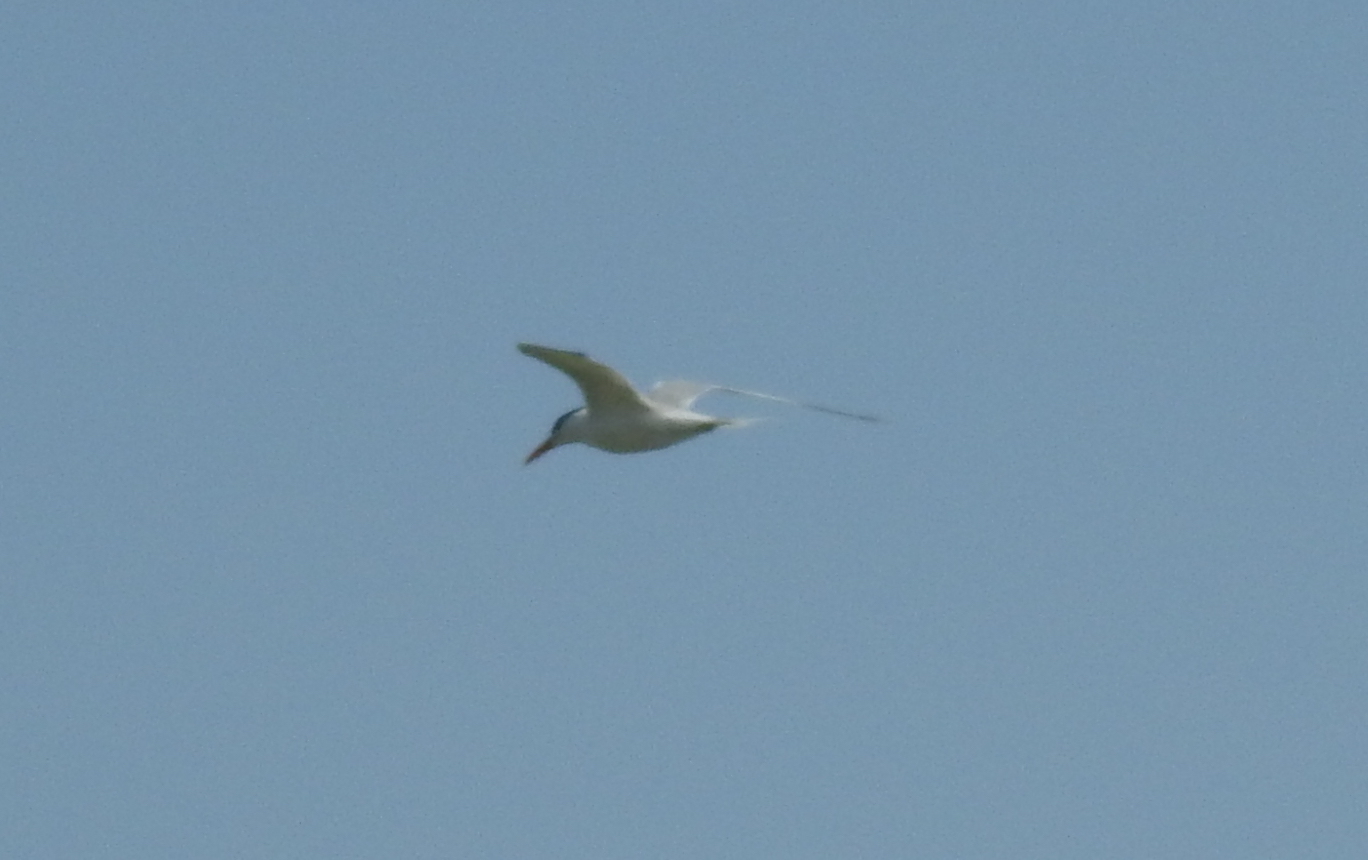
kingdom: Animalia
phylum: Chordata
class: Aves
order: Charadriiformes
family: Laridae
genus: Thalasseus
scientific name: Thalasseus maximus
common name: Royal tern
